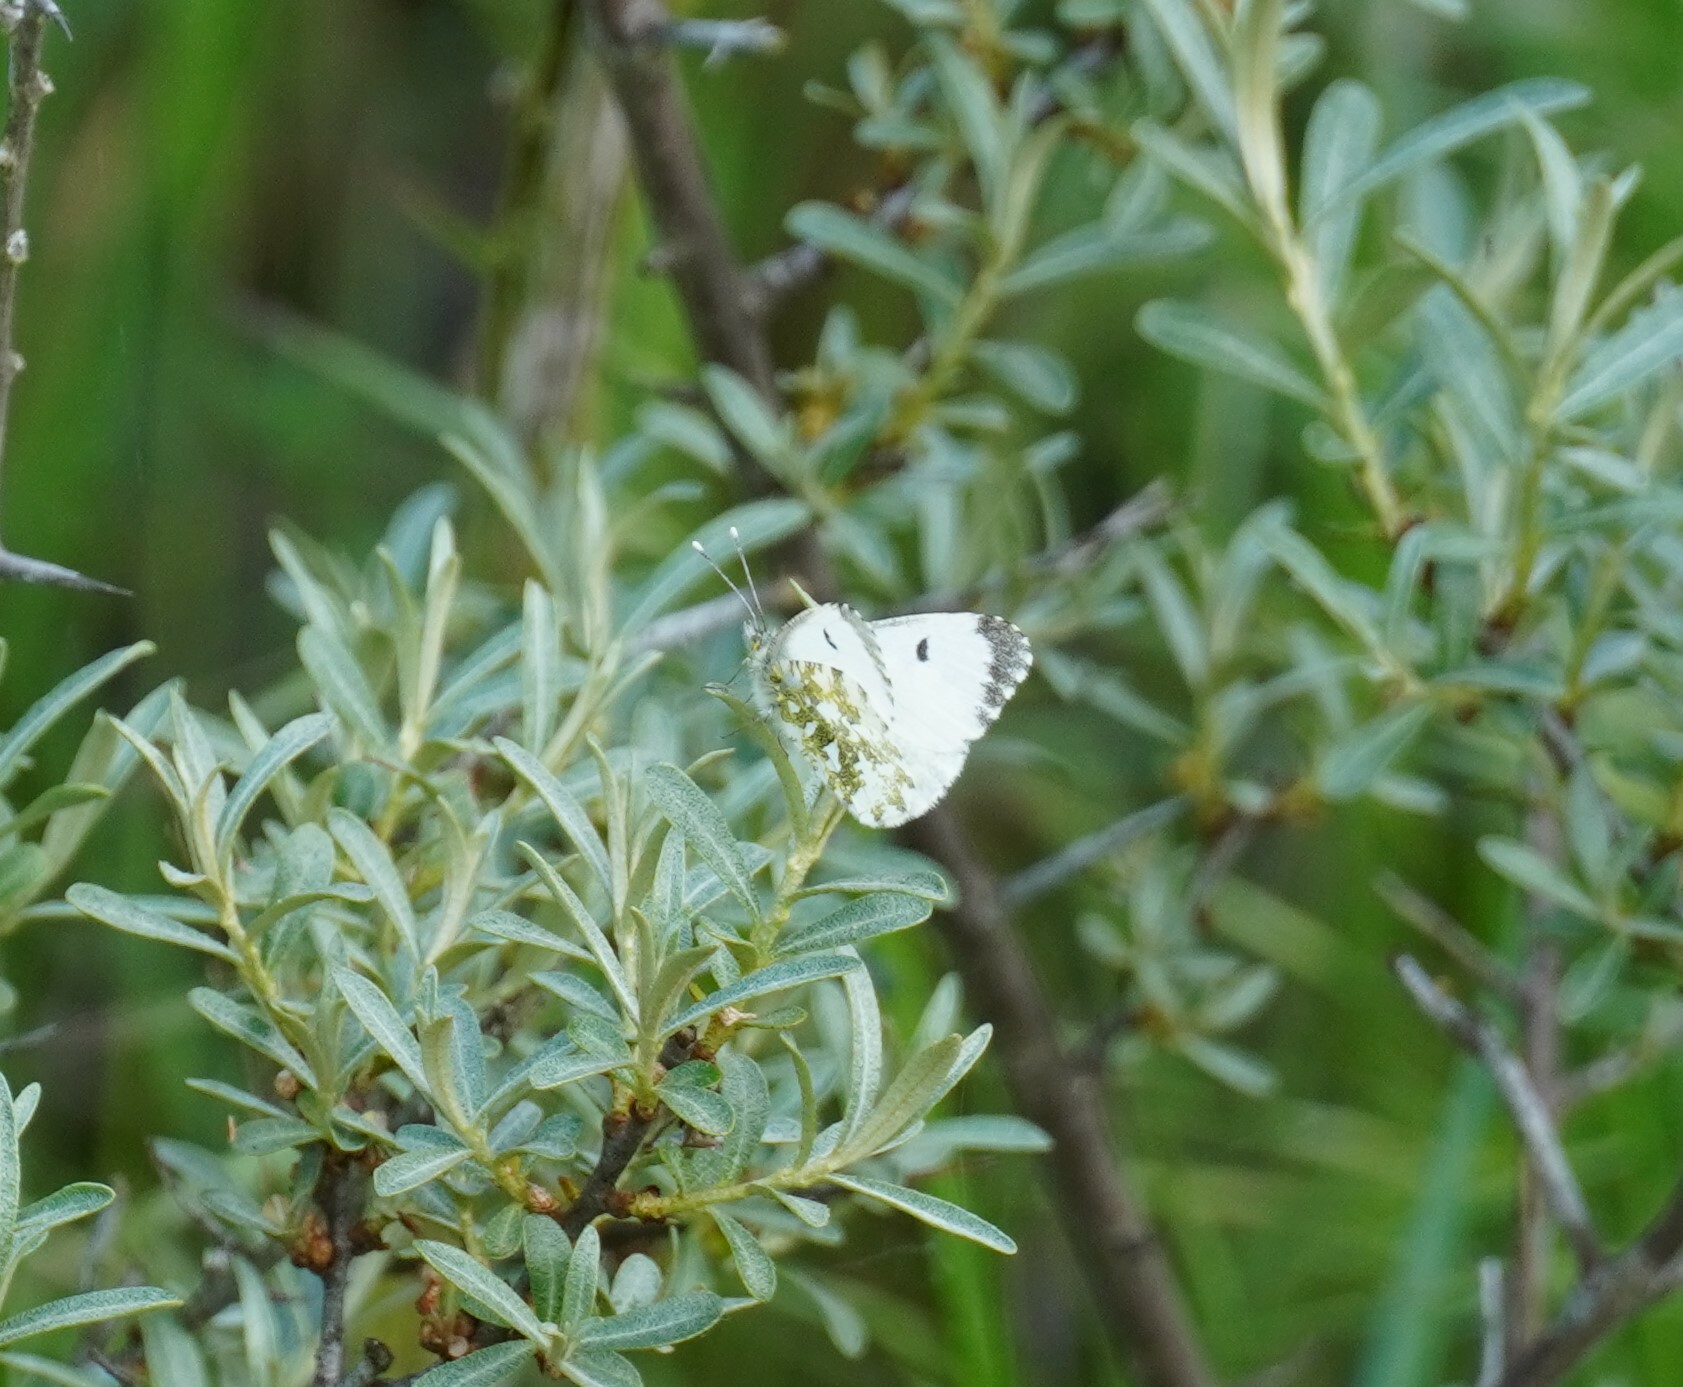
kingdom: Animalia
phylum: Arthropoda
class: Insecta
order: Lepidoptera
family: Pieridae
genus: Anthocharis
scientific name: Anthocharis cardamines
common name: Orange-tip
